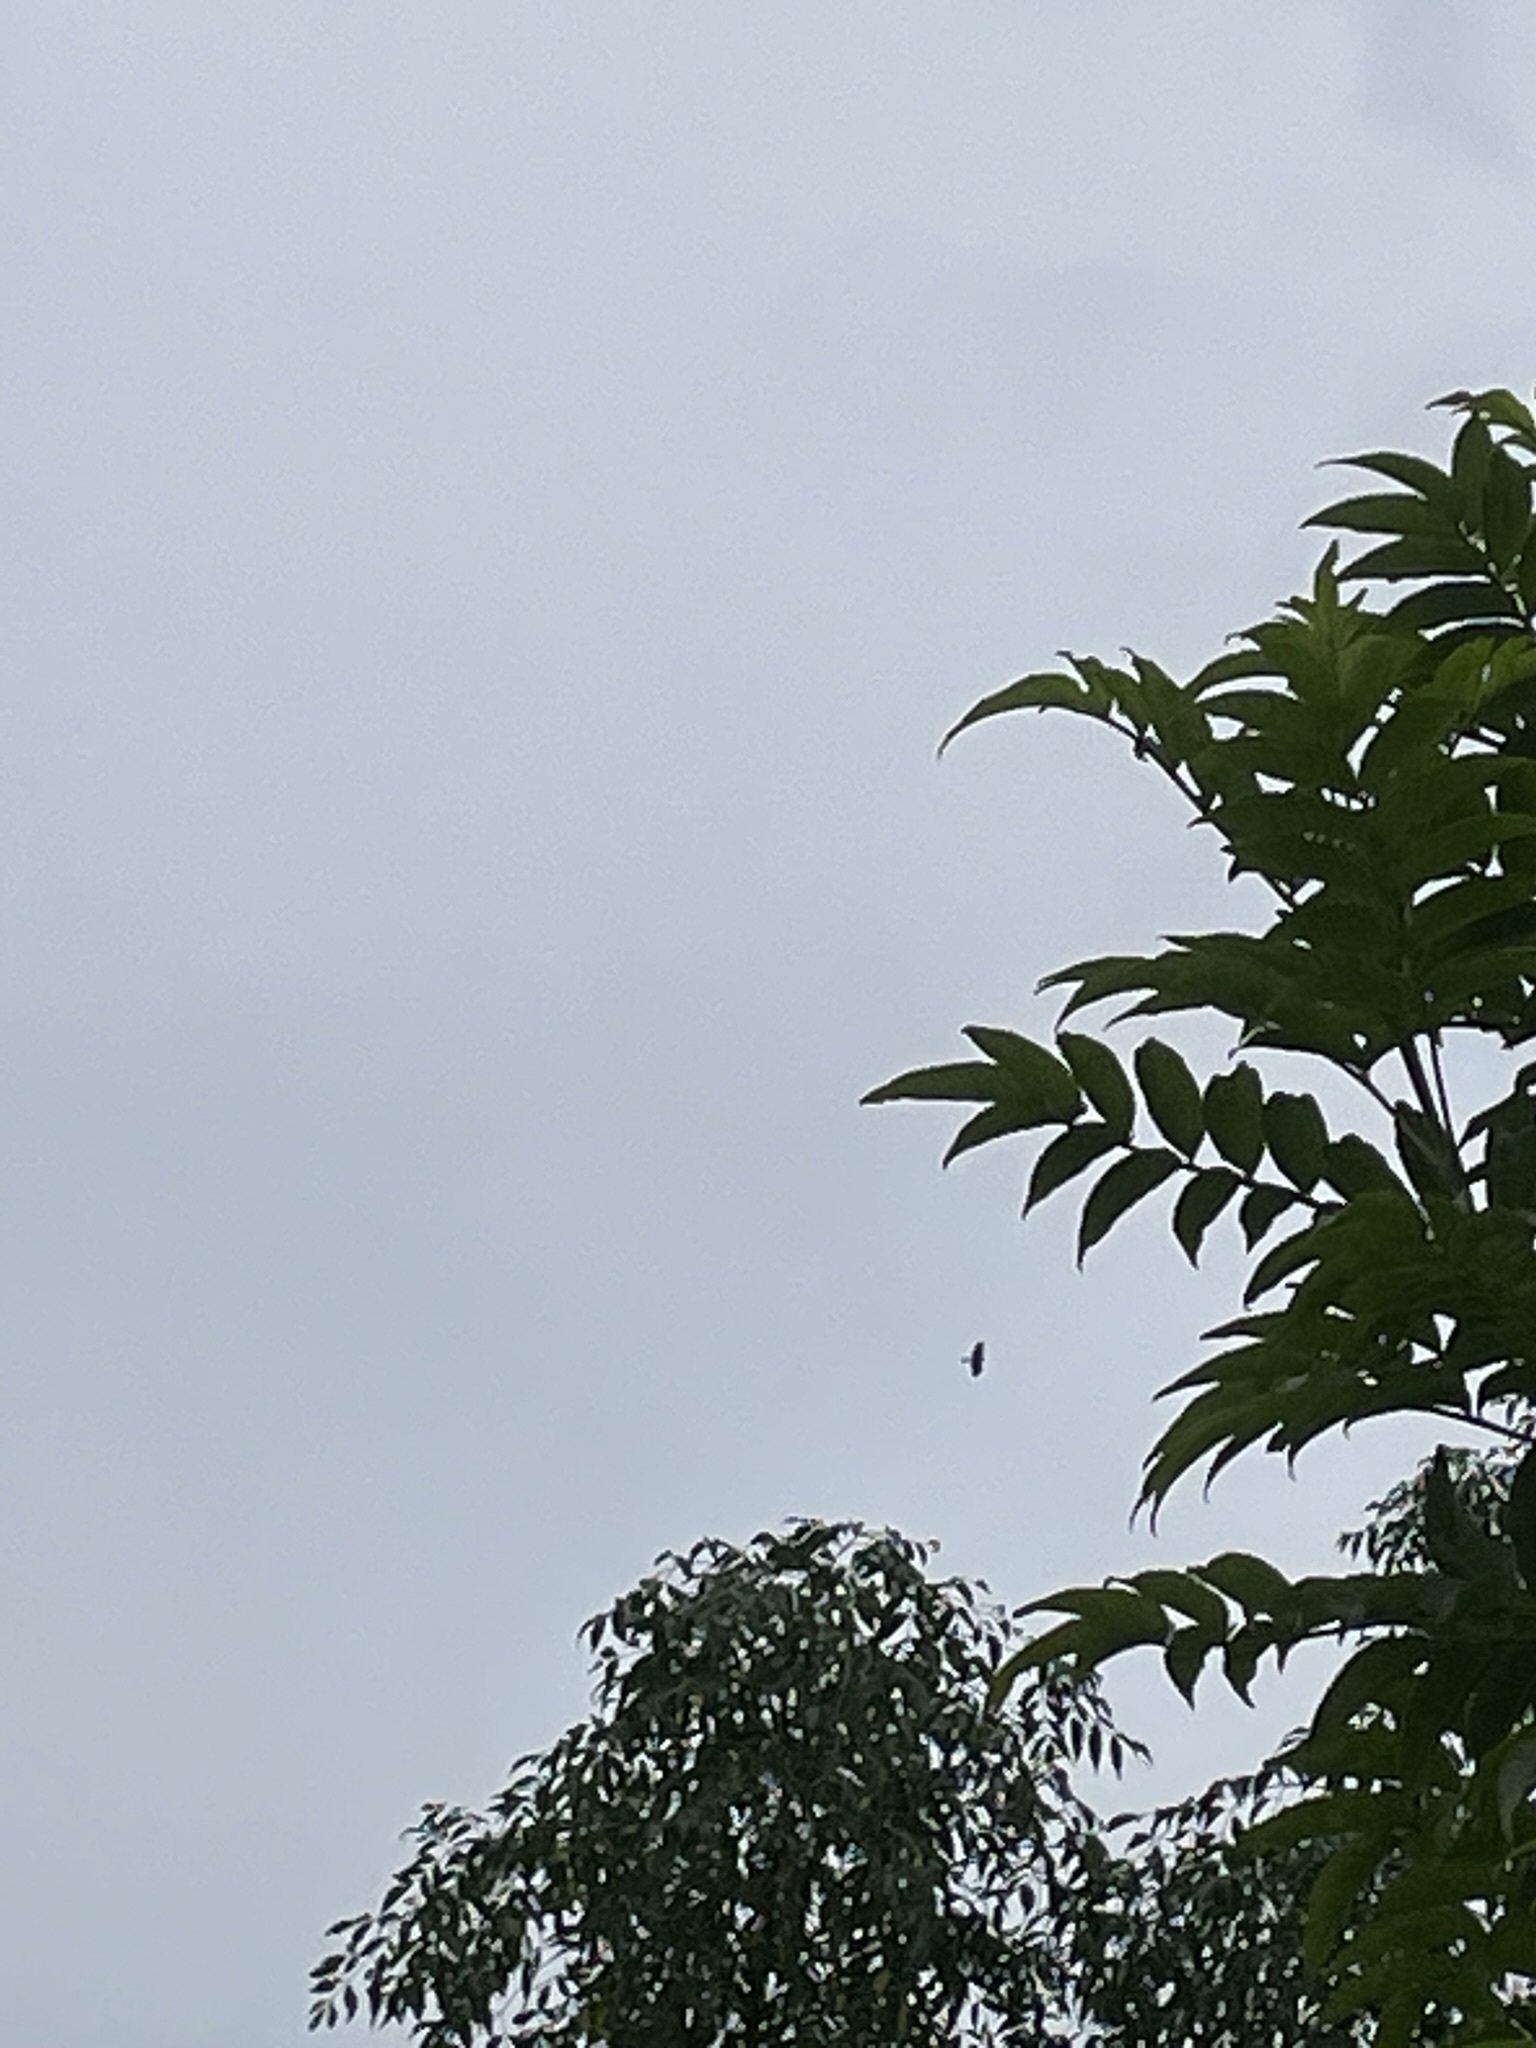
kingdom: Animalia
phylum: Chordata
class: Aves
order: Accipitriformes
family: Accipitridae
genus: Parabuteo
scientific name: Parabuteo unicinctus
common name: Harris's hawk
